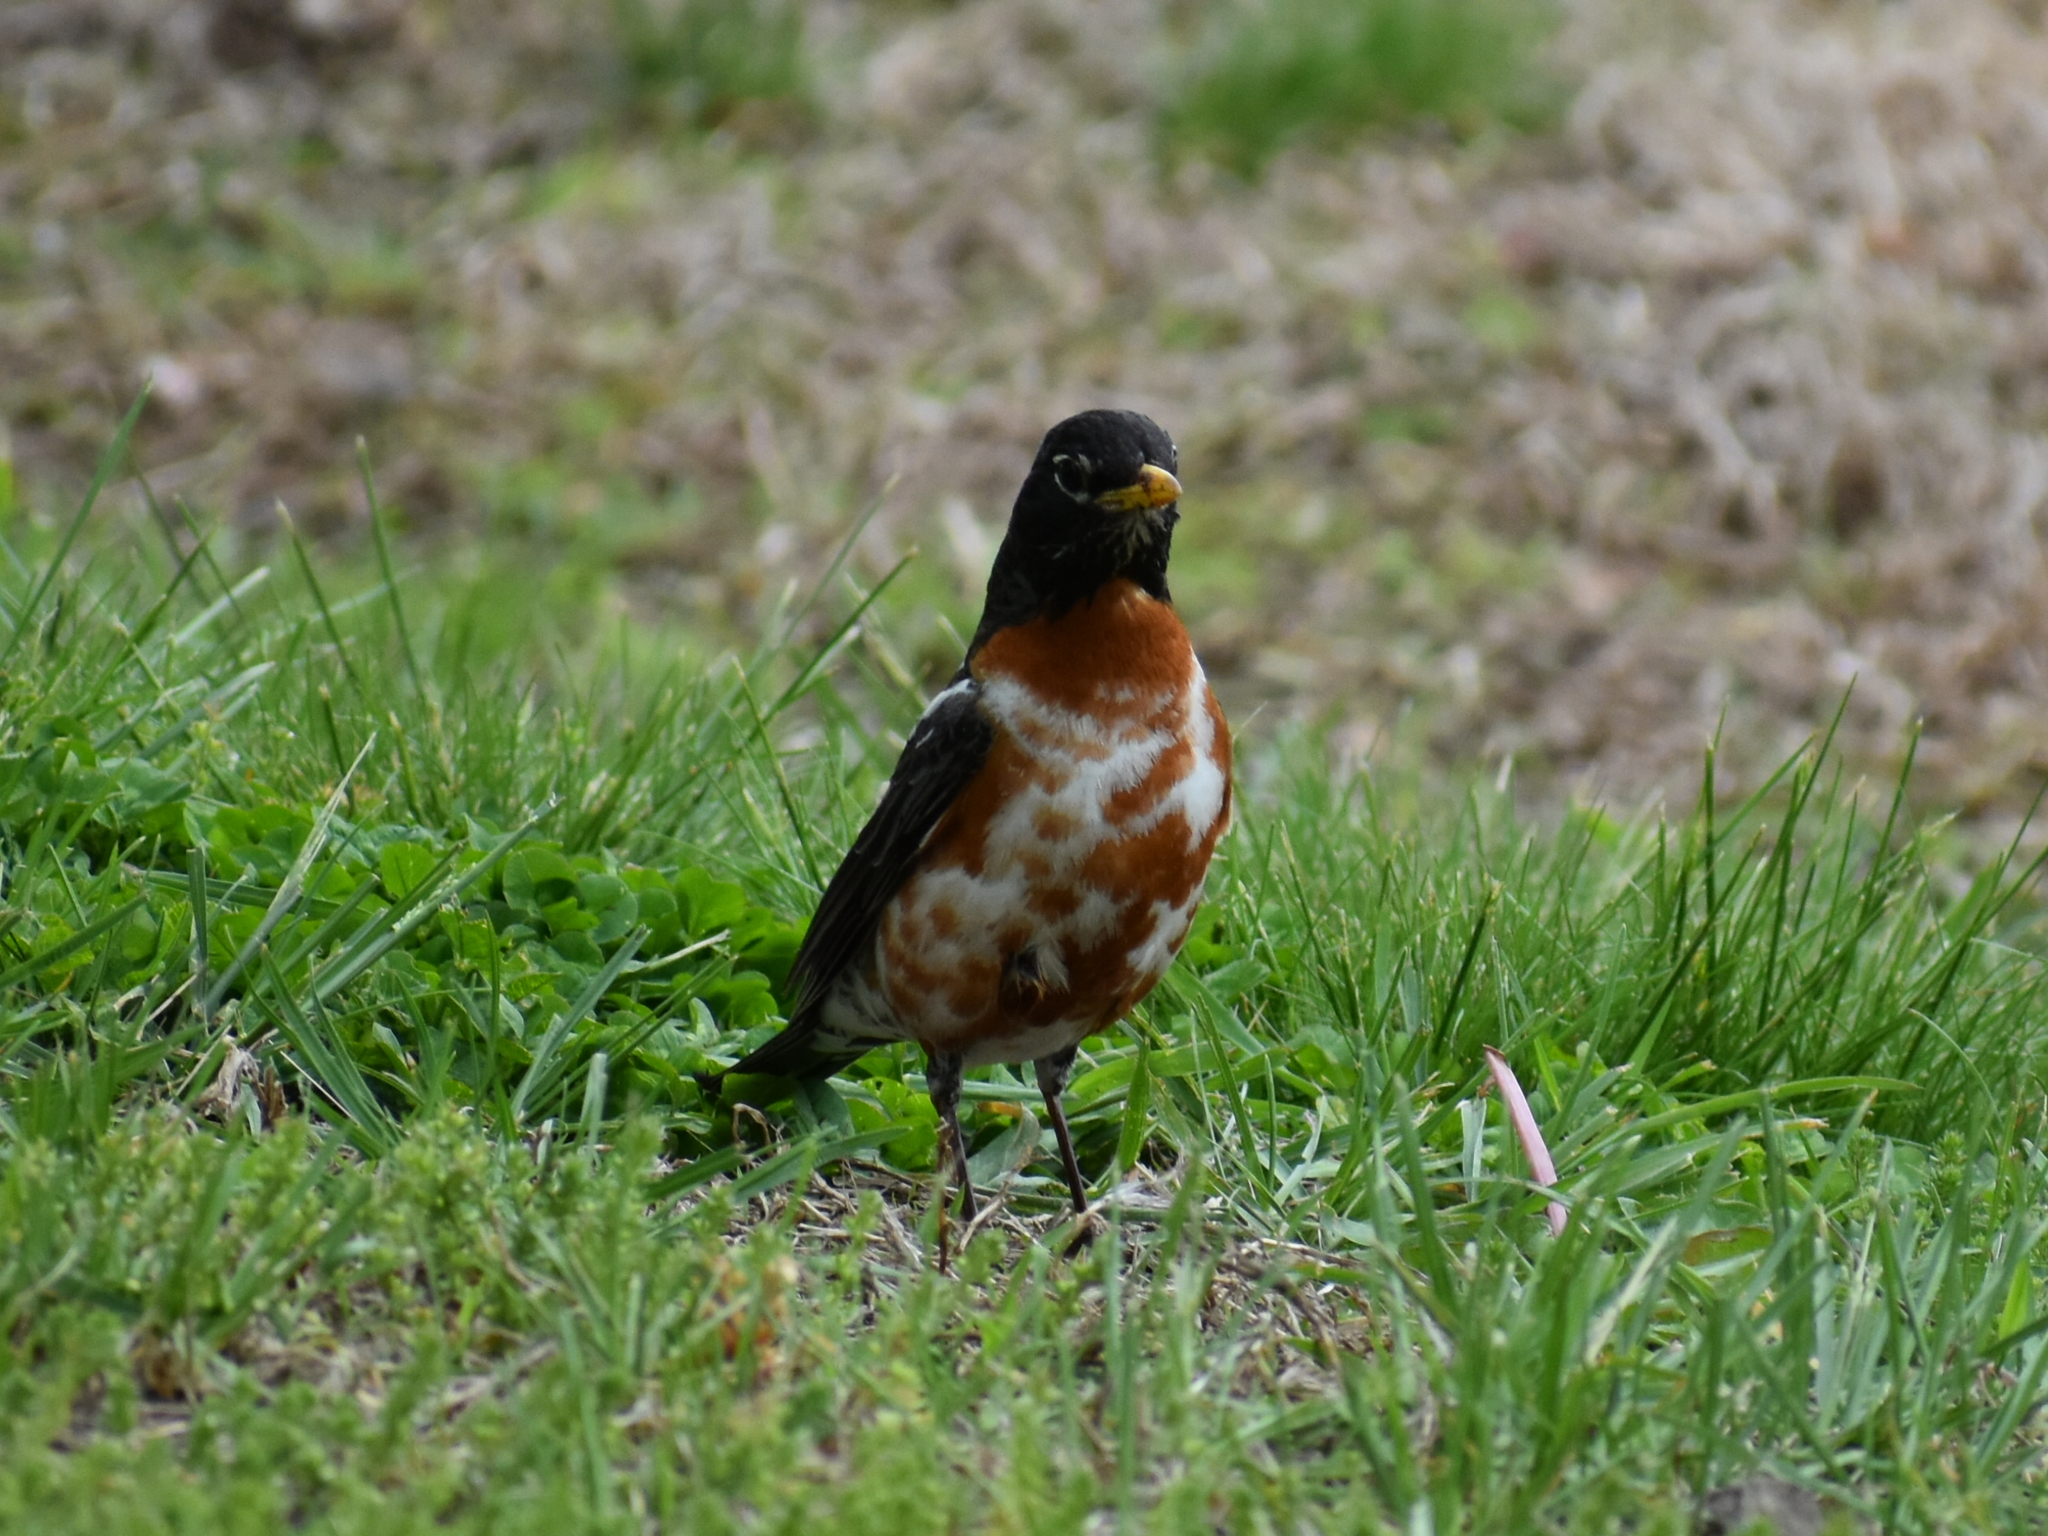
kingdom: Animalia
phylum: Chordata
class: Aves
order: Passeriformes
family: Turdidae
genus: Turdus
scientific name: Turdus migratorius
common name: American robin
